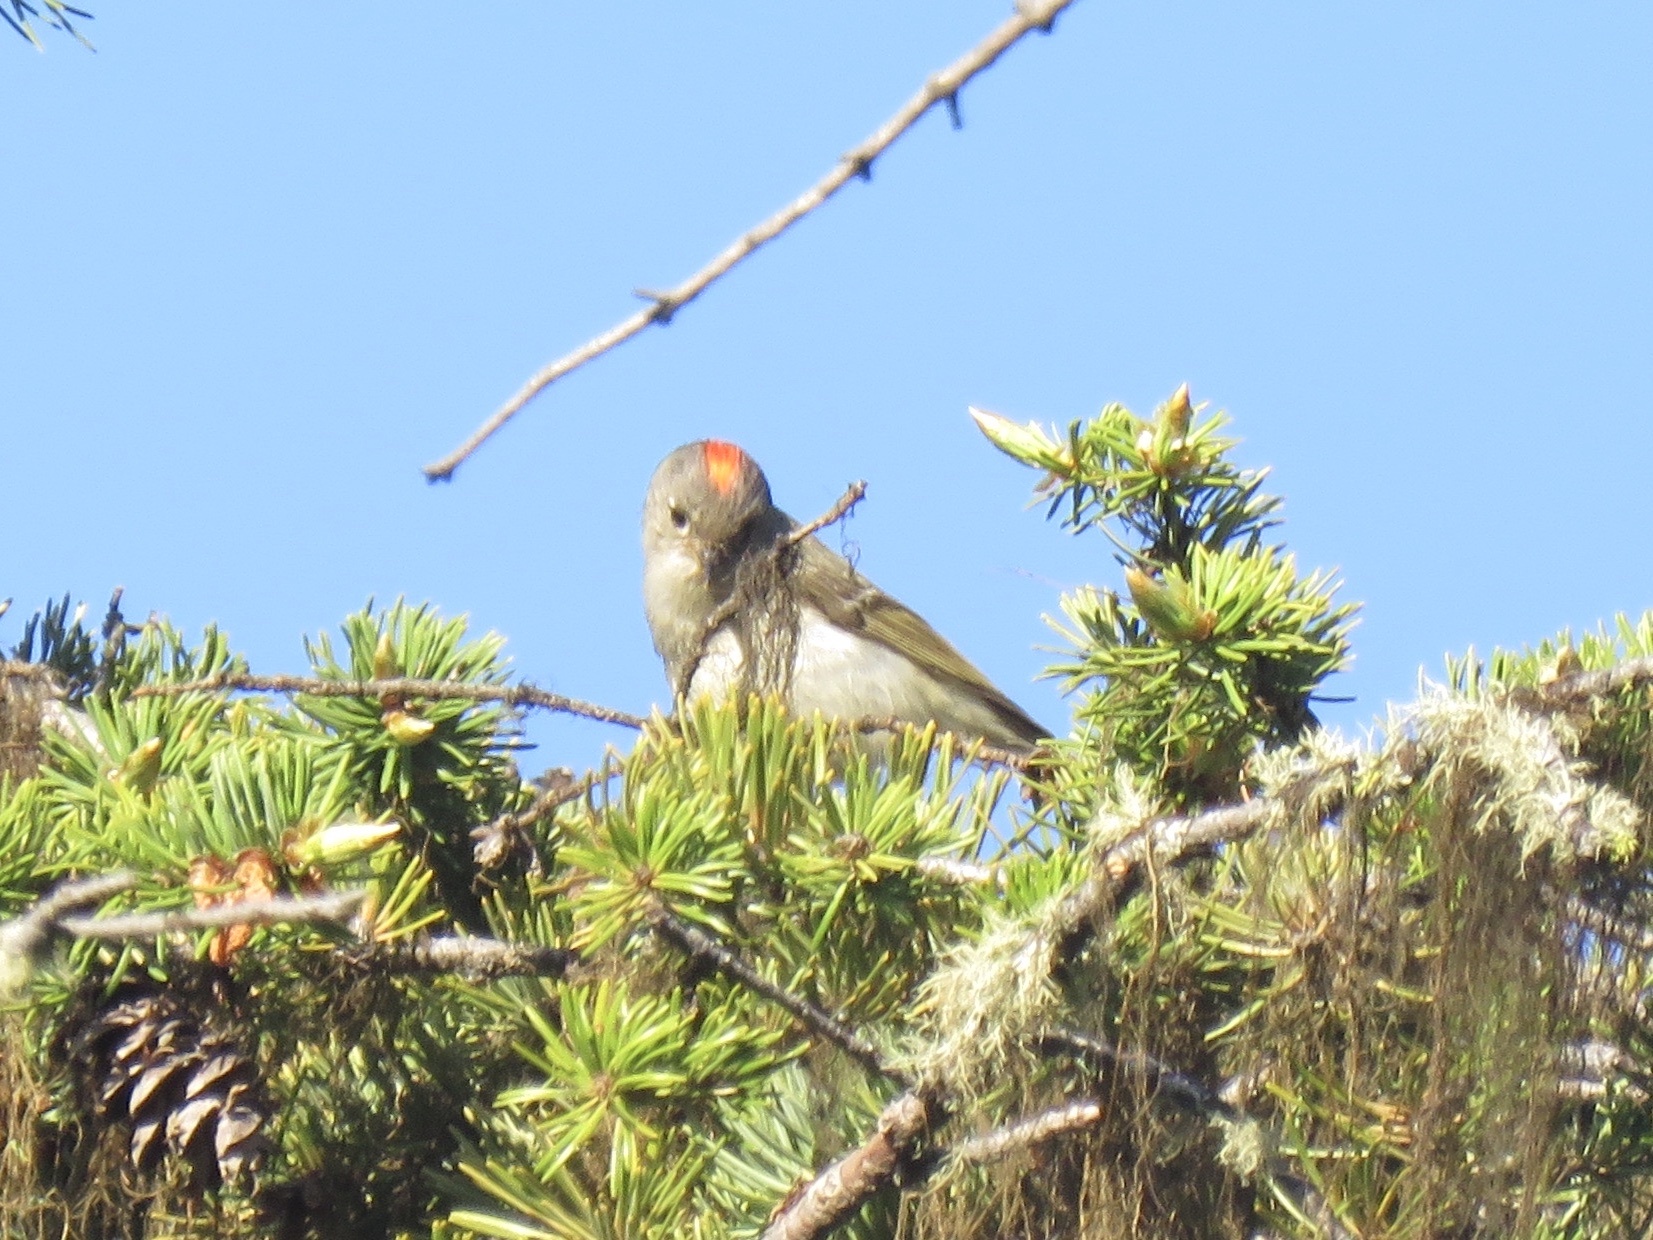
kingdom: Animalia
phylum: Chordata
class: Aves
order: Passeriformes
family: Regulidae
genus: Regulus
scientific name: Regulus calendula
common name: Ruby-crowned kinglet
